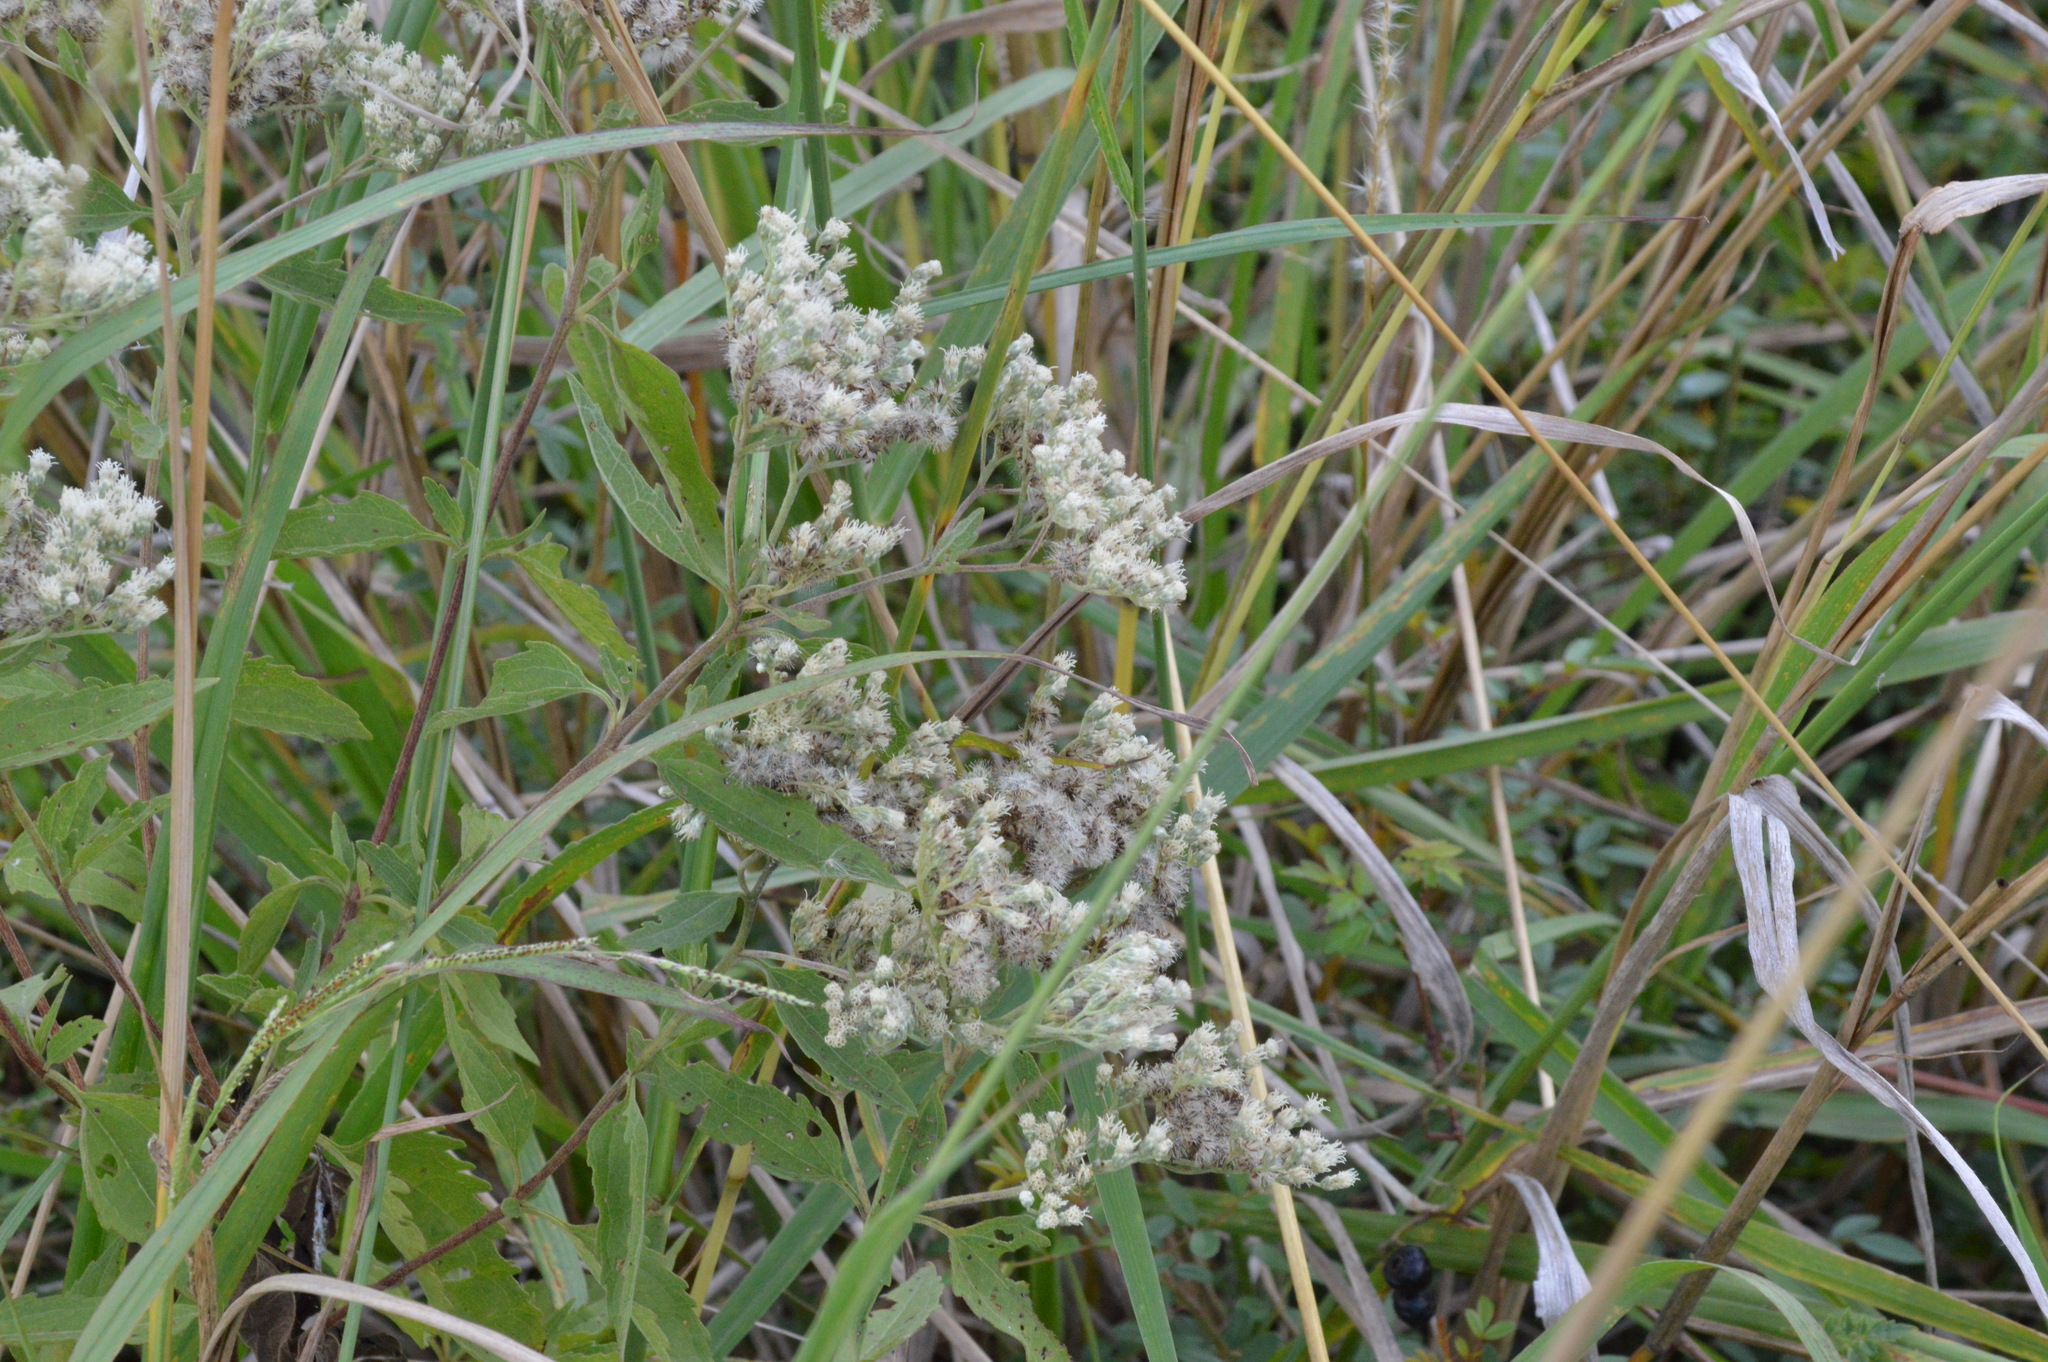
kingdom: Plantae
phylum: Tracheophyta
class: Magnoliopsida
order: Asterales
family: Asteraceae
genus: Eupatorium
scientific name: Eupatorium serotinum
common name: Late boneset
